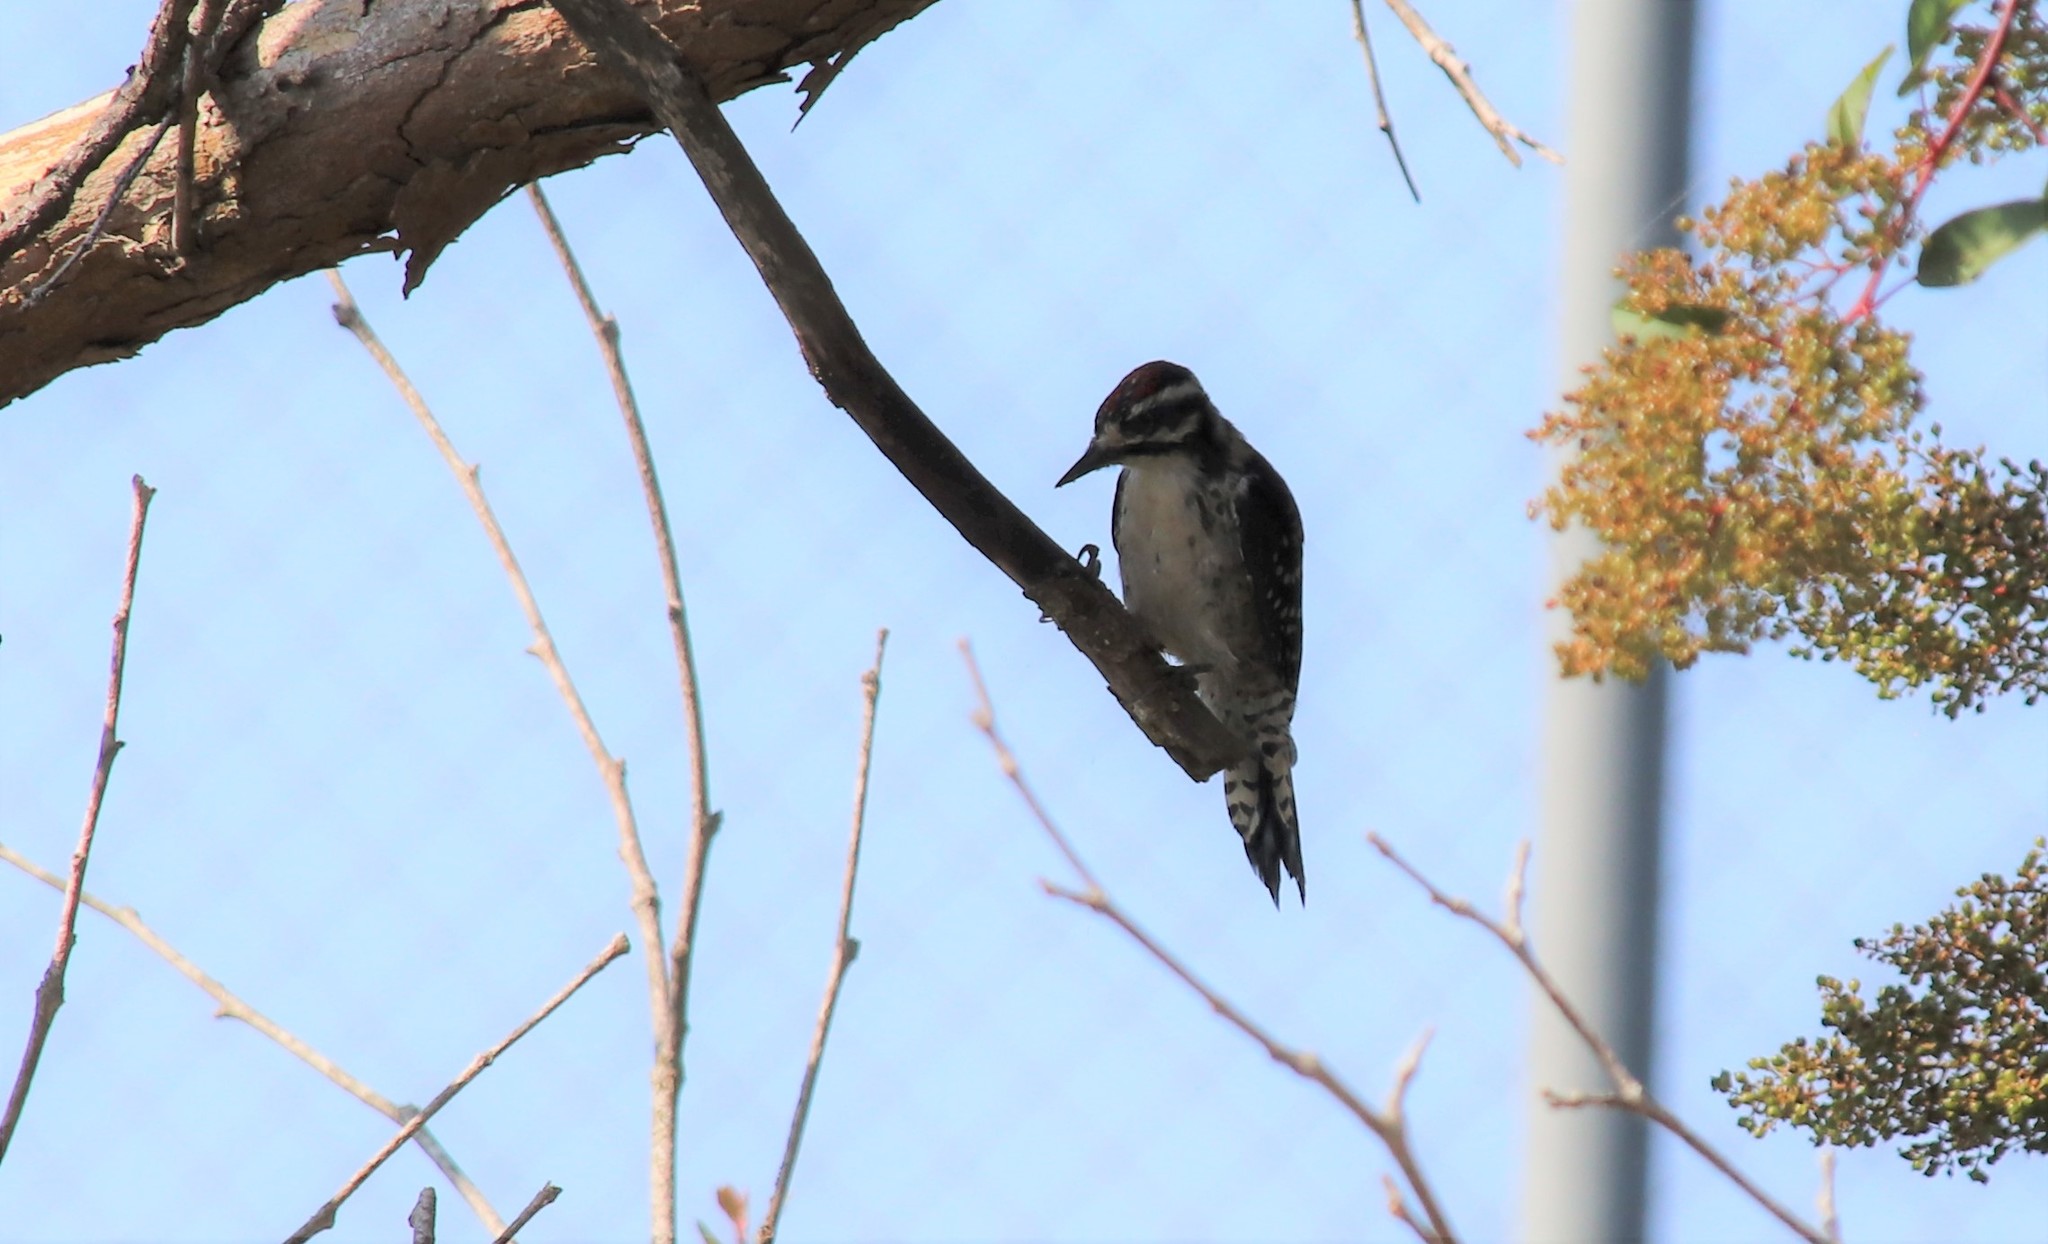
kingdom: Animalia
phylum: Chordata
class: Aves
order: Piciformes
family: Picidae
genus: Dryobates
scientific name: Dryobates nuttallii
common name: Nuttall's woodpecker
